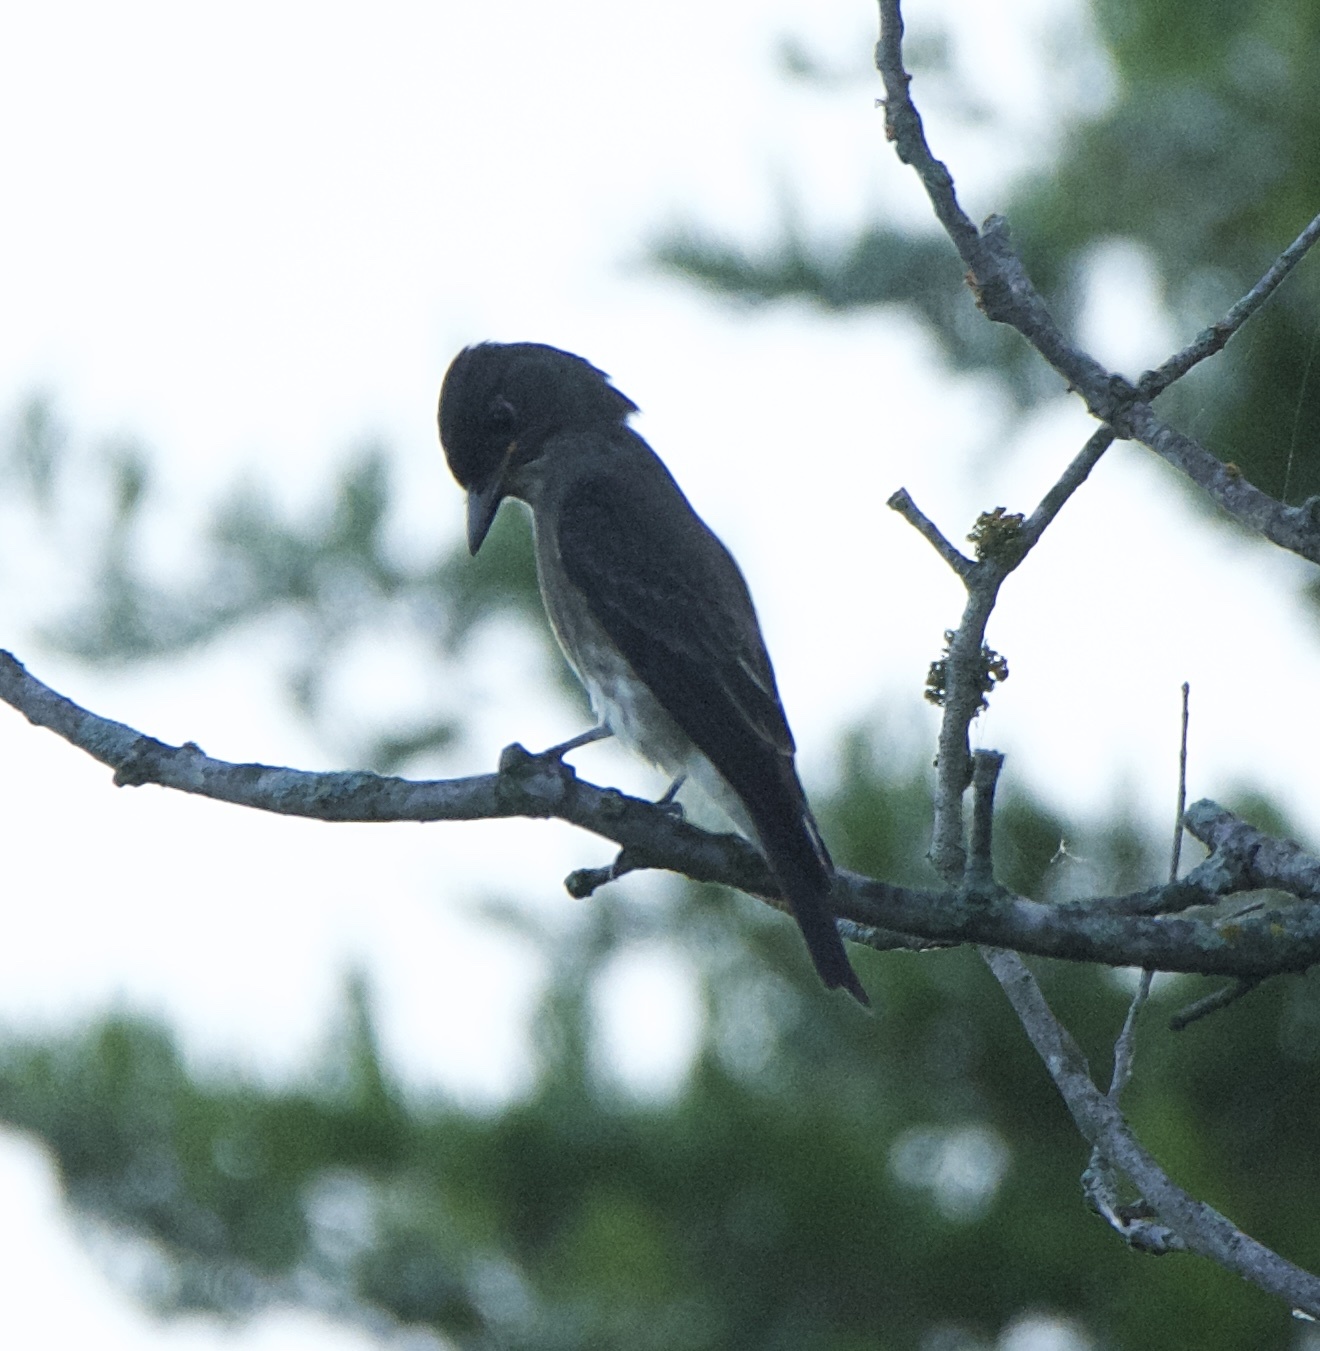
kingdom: Animalia
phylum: Chordata
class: Aves
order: Passeriformes
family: Tyrannidae
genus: Contopus
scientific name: Contopus cooperi
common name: Olive-sided flycatcher
